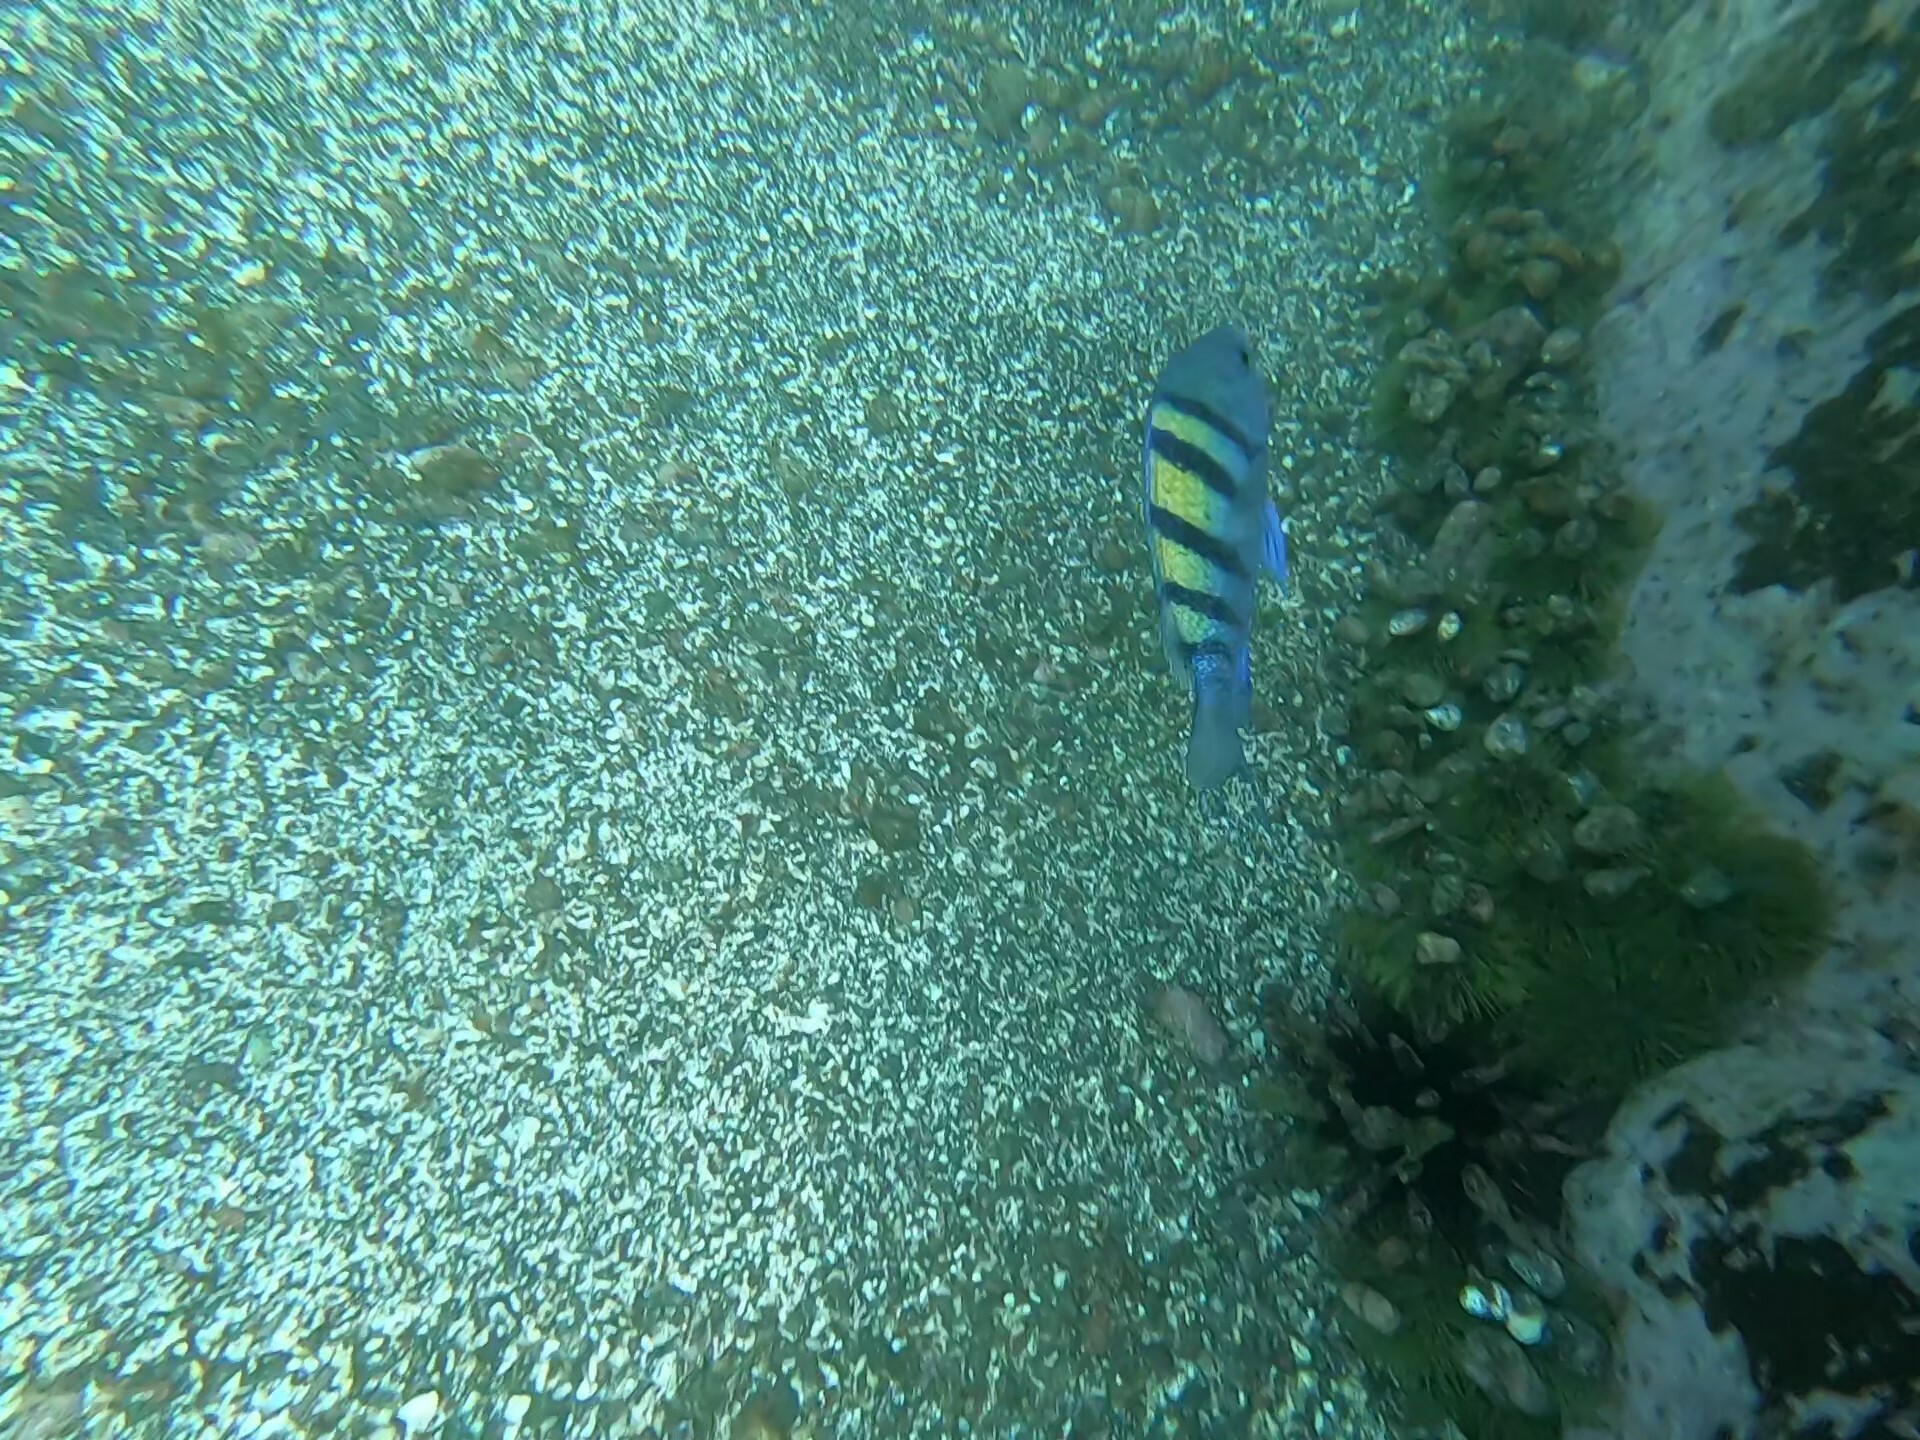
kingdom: Animalia
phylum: Chordata
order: Perciformes
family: Pomacentridae
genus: Abudefduf
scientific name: Abudefduf troschelii
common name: Panamic sergeant major
